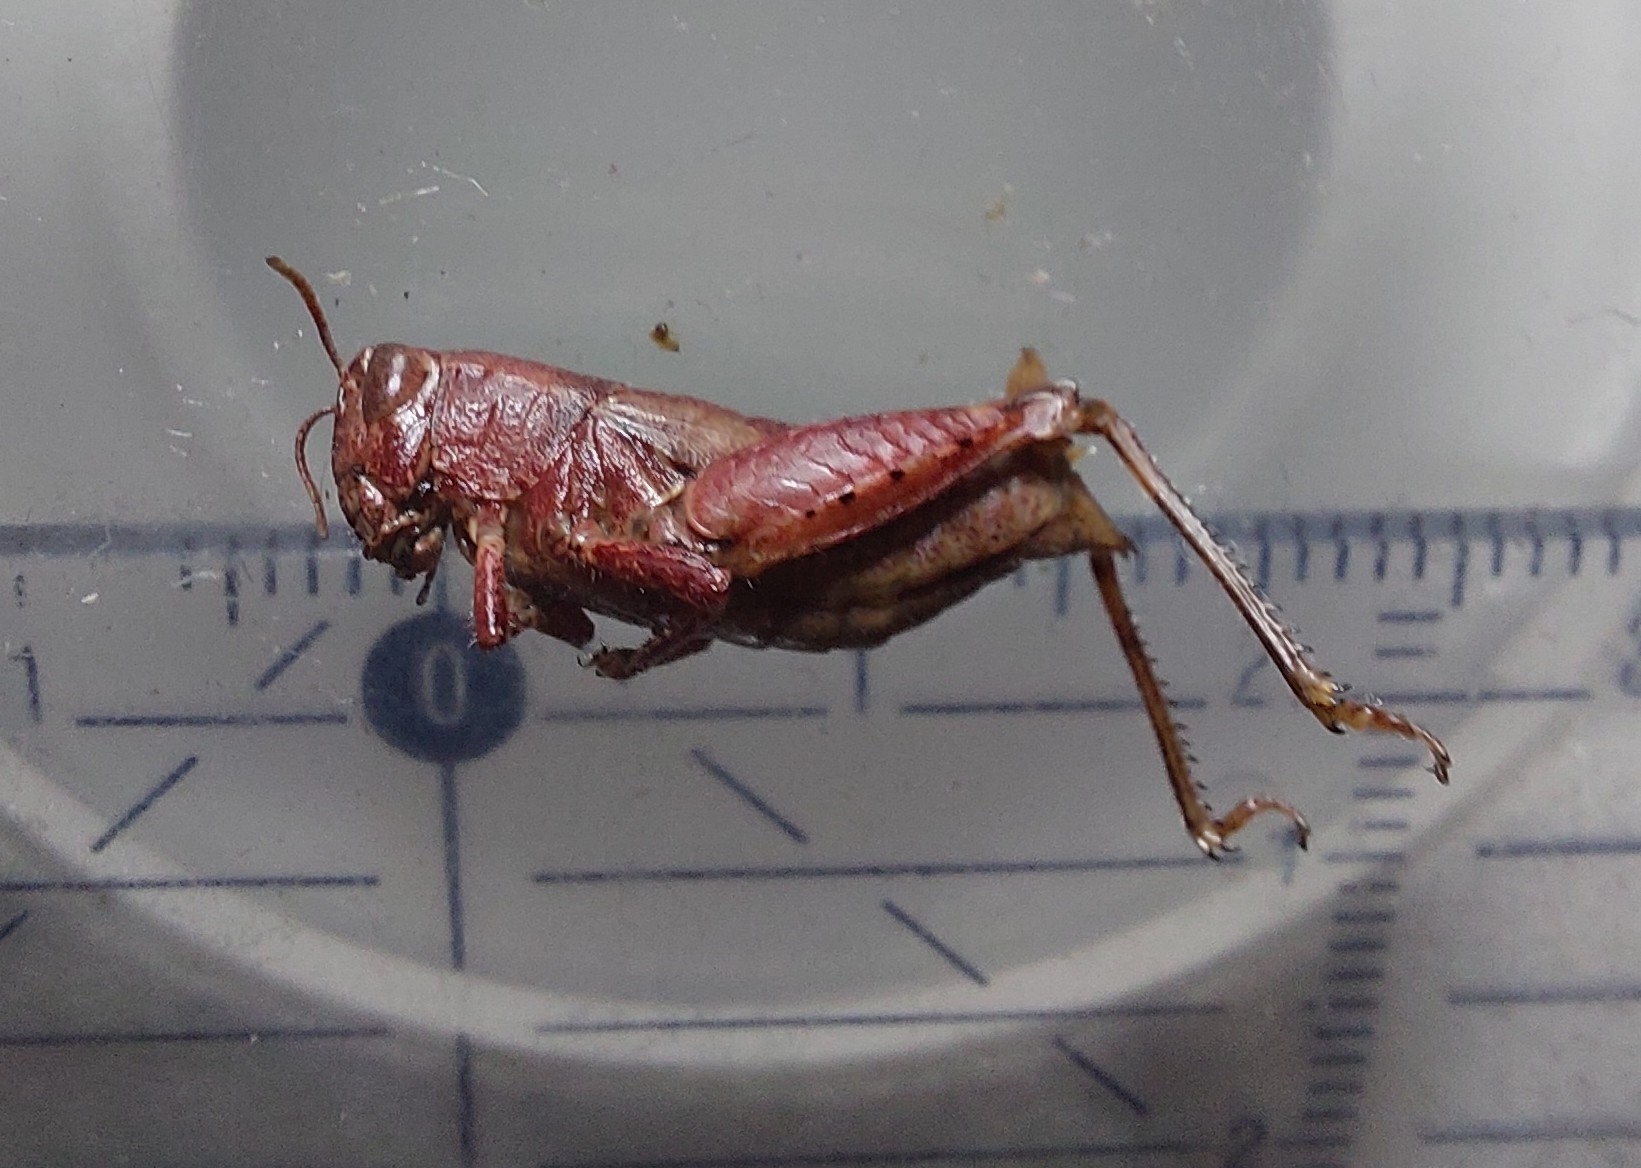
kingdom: Animalia
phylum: Arthropoda
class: Insecta
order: Orthoptera
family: Acrididae
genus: Pezotettix
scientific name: Pezotettix giornae
